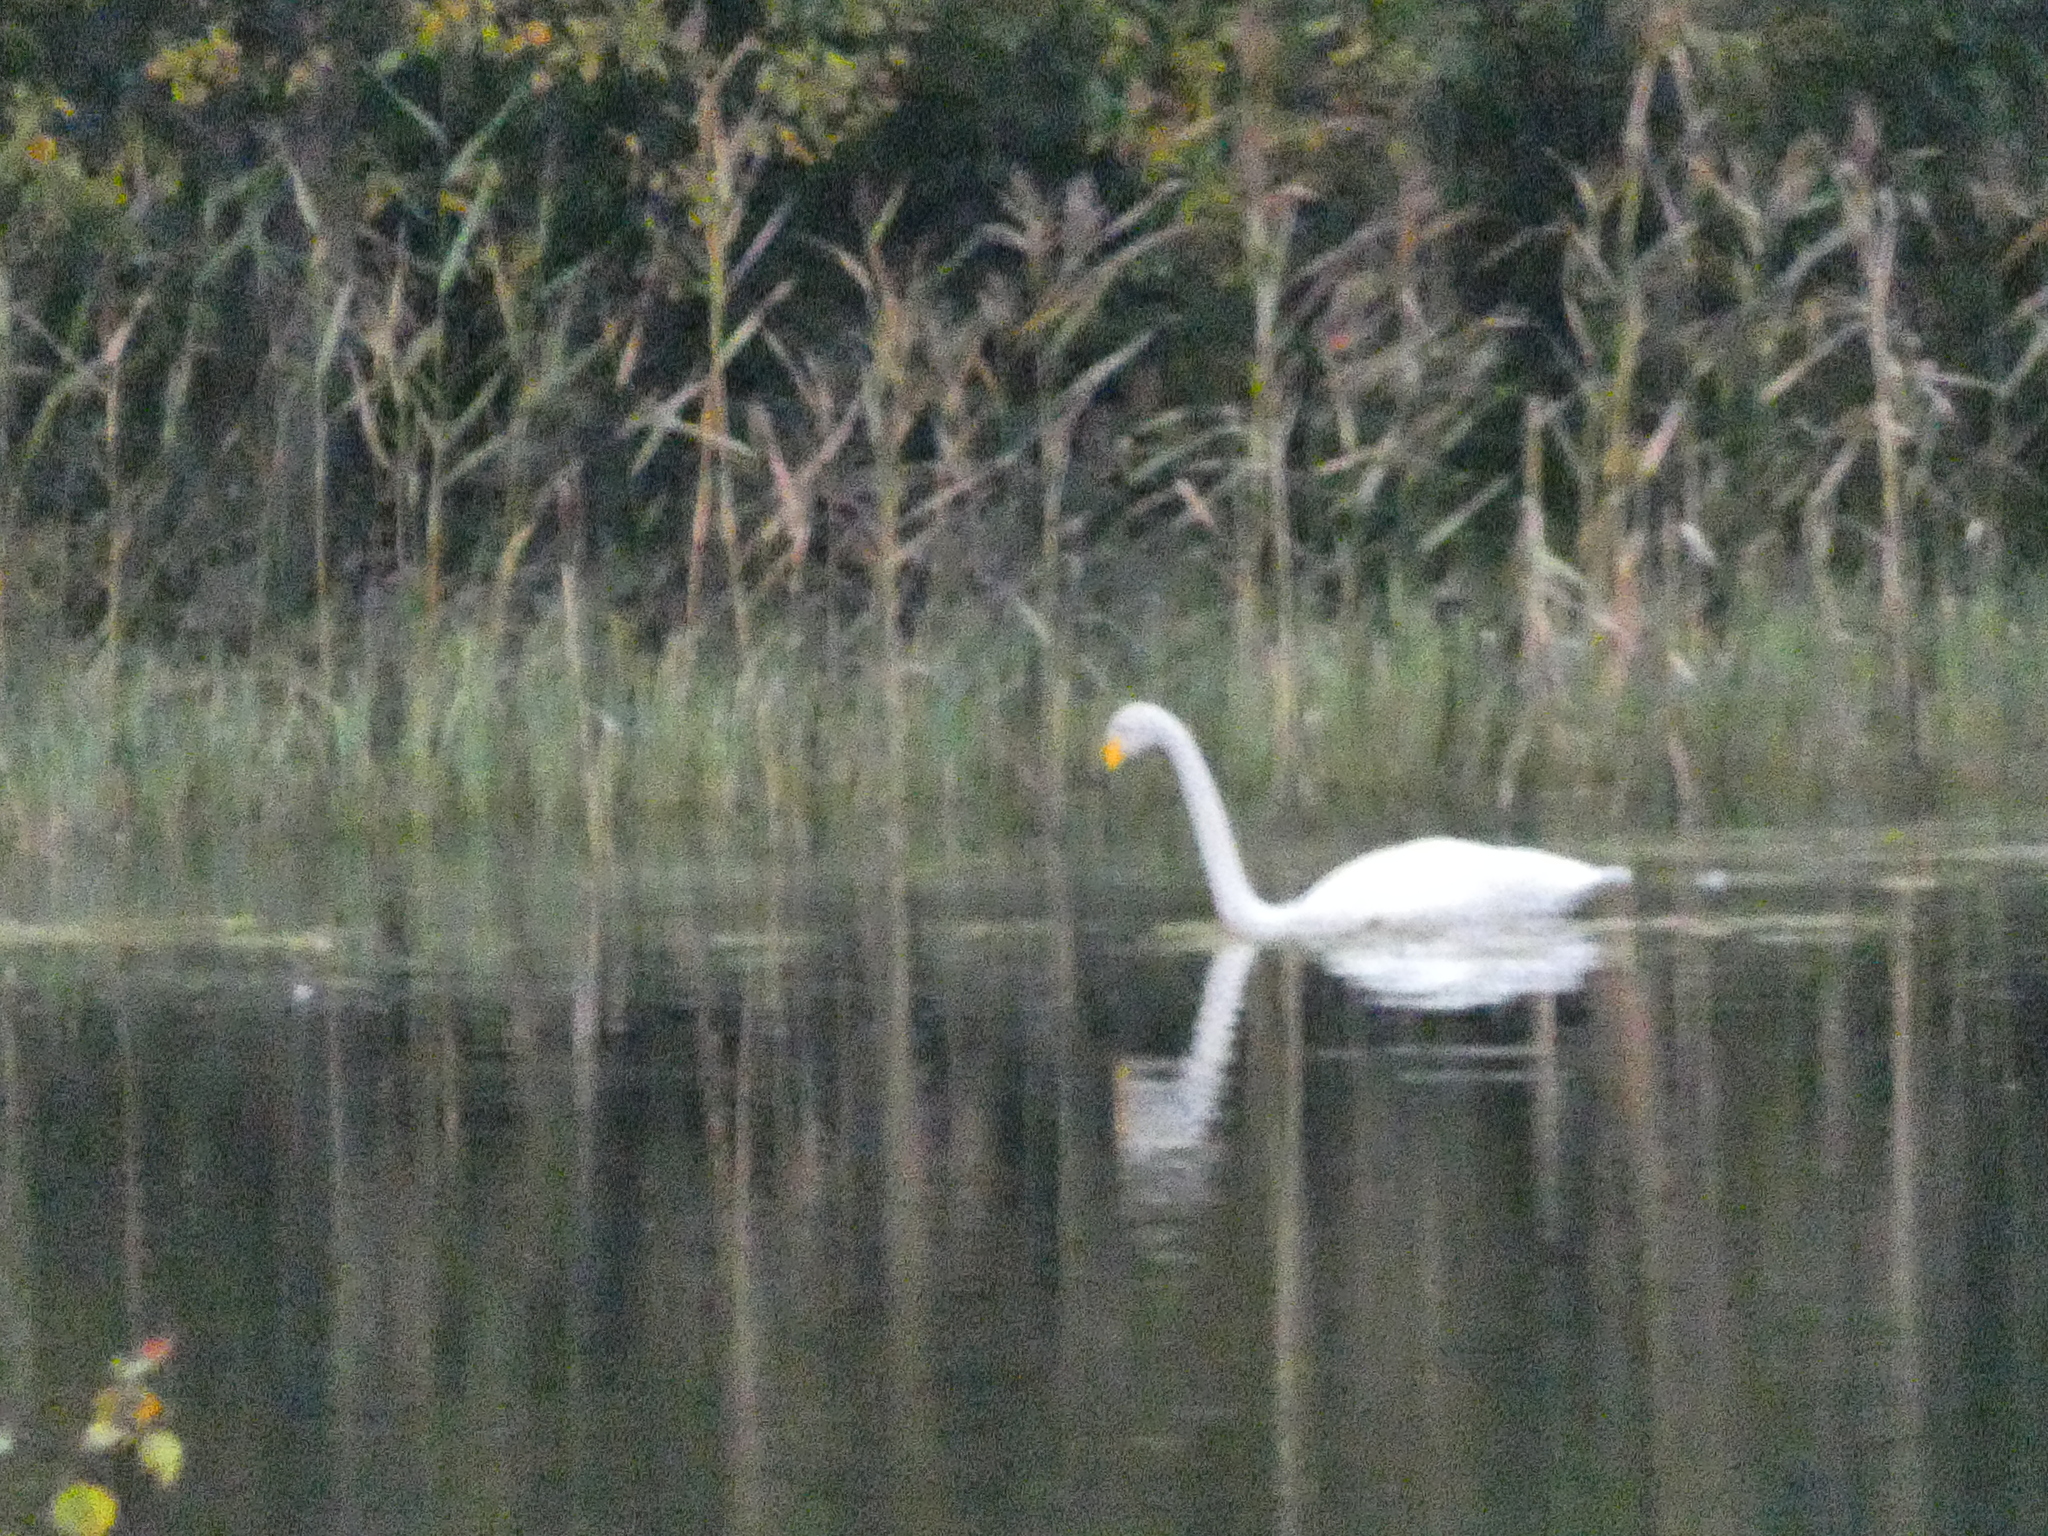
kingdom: Animalia
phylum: Chordata
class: Aves
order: Anseriformes
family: Anatidae
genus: Cygnus
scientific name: Cygnus cygnus
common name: Whooper swan
